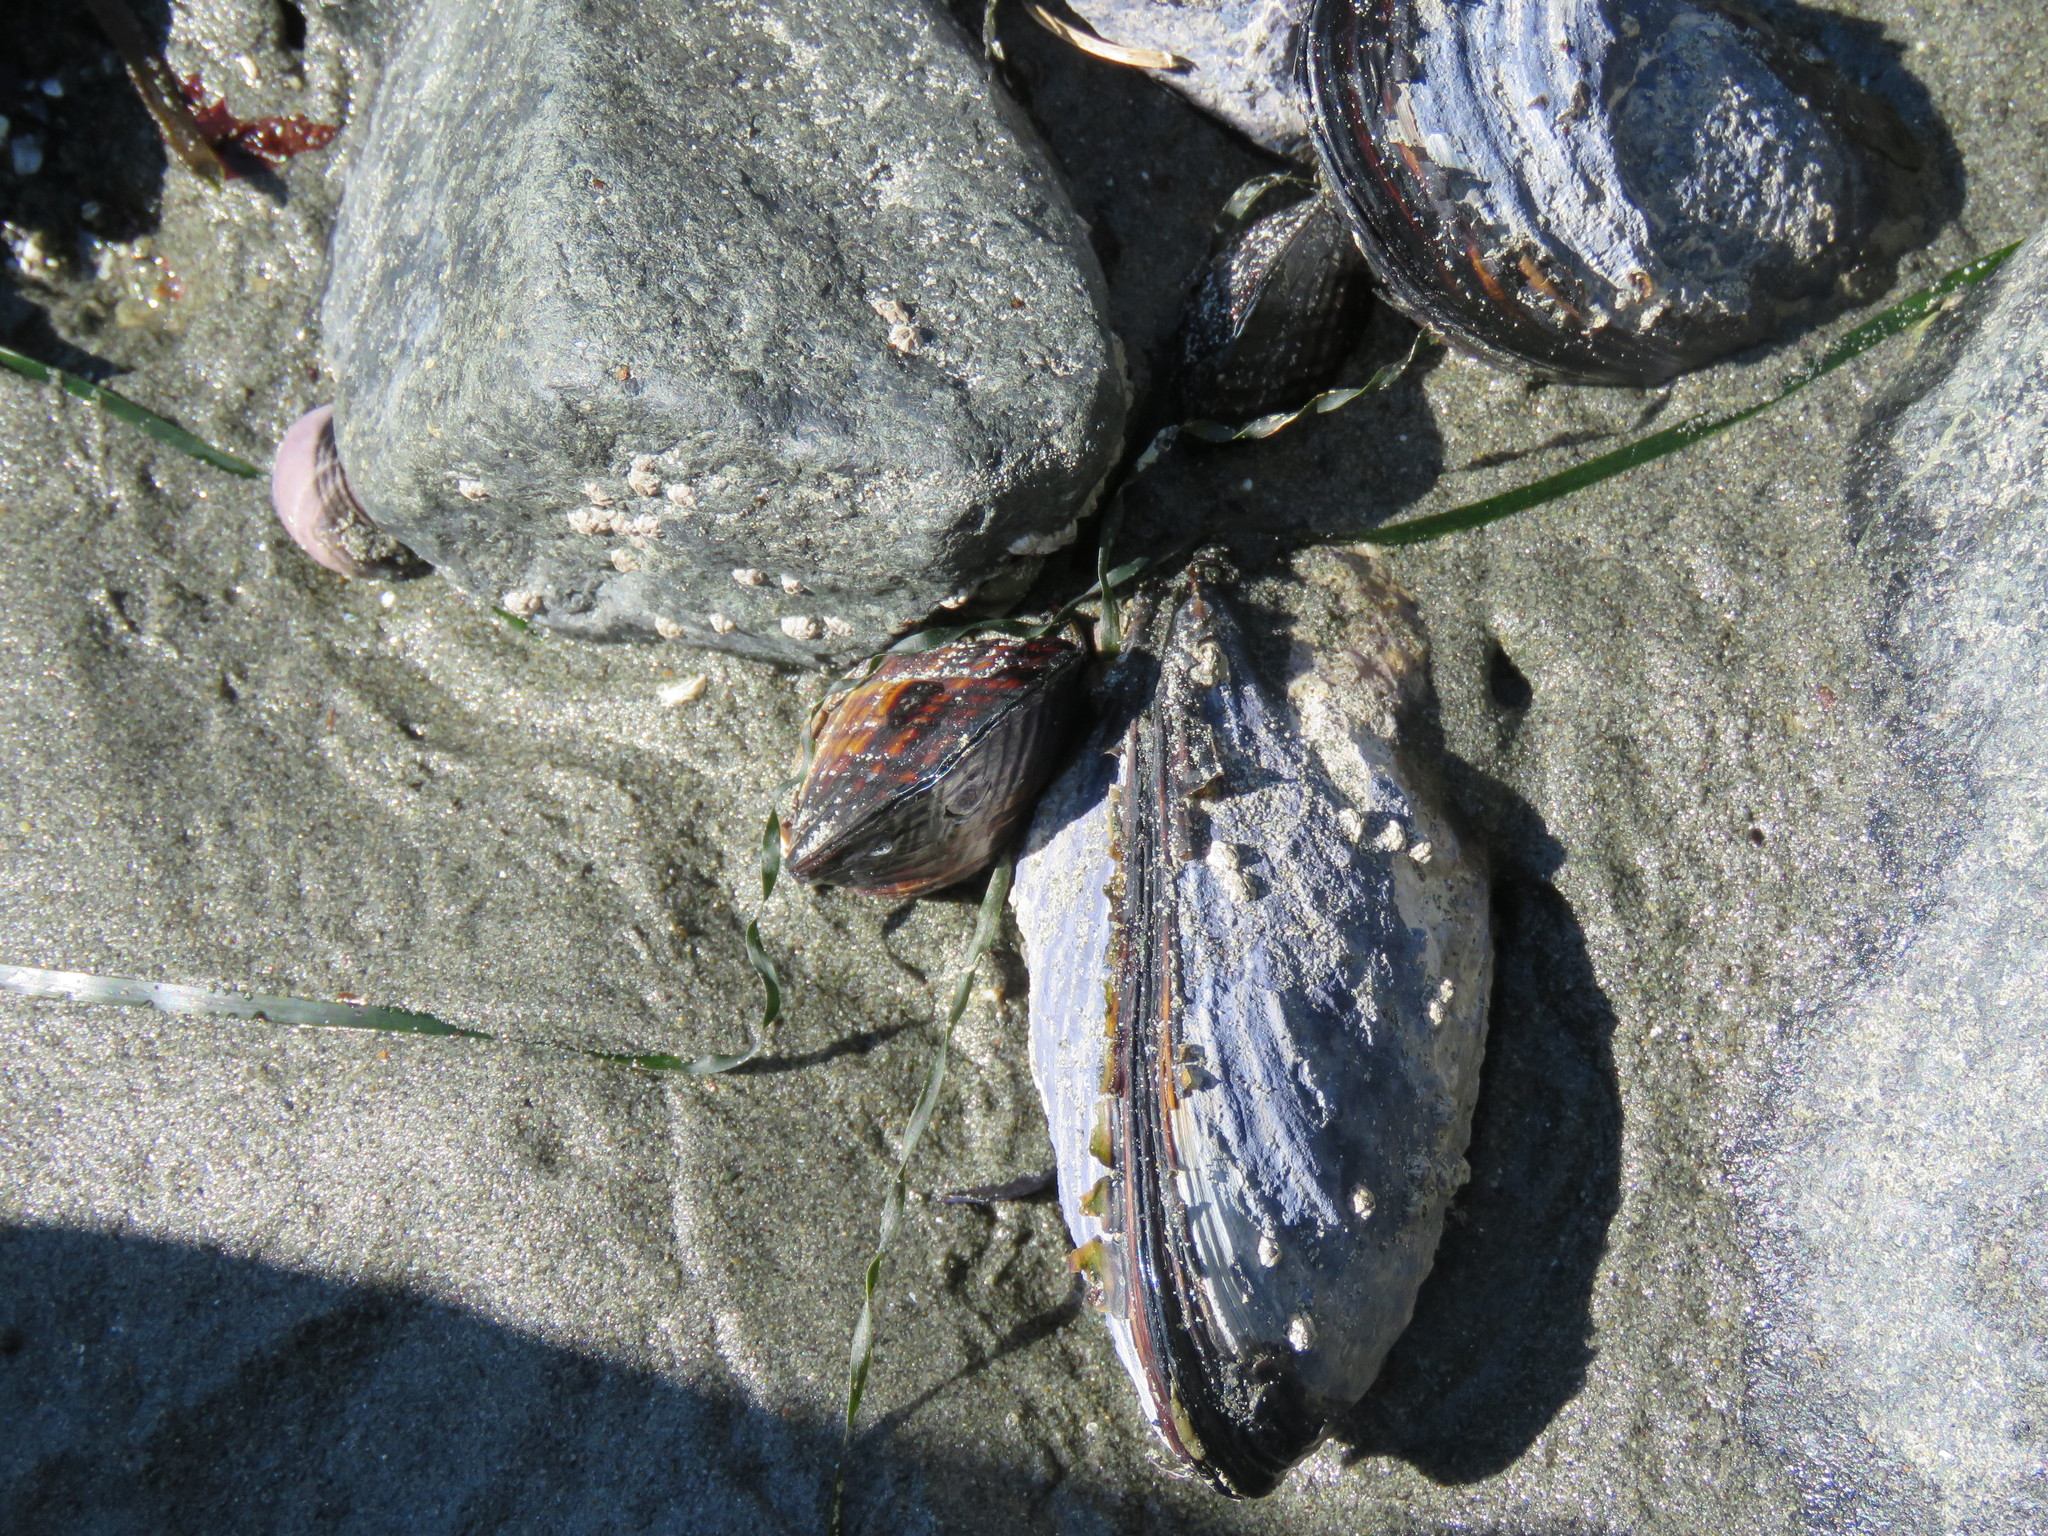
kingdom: Animalia
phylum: Mollusca
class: Bivalvia
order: Mytilida
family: Mytilidae
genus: Mytilus
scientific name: Mytilus californianus
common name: California mussel
